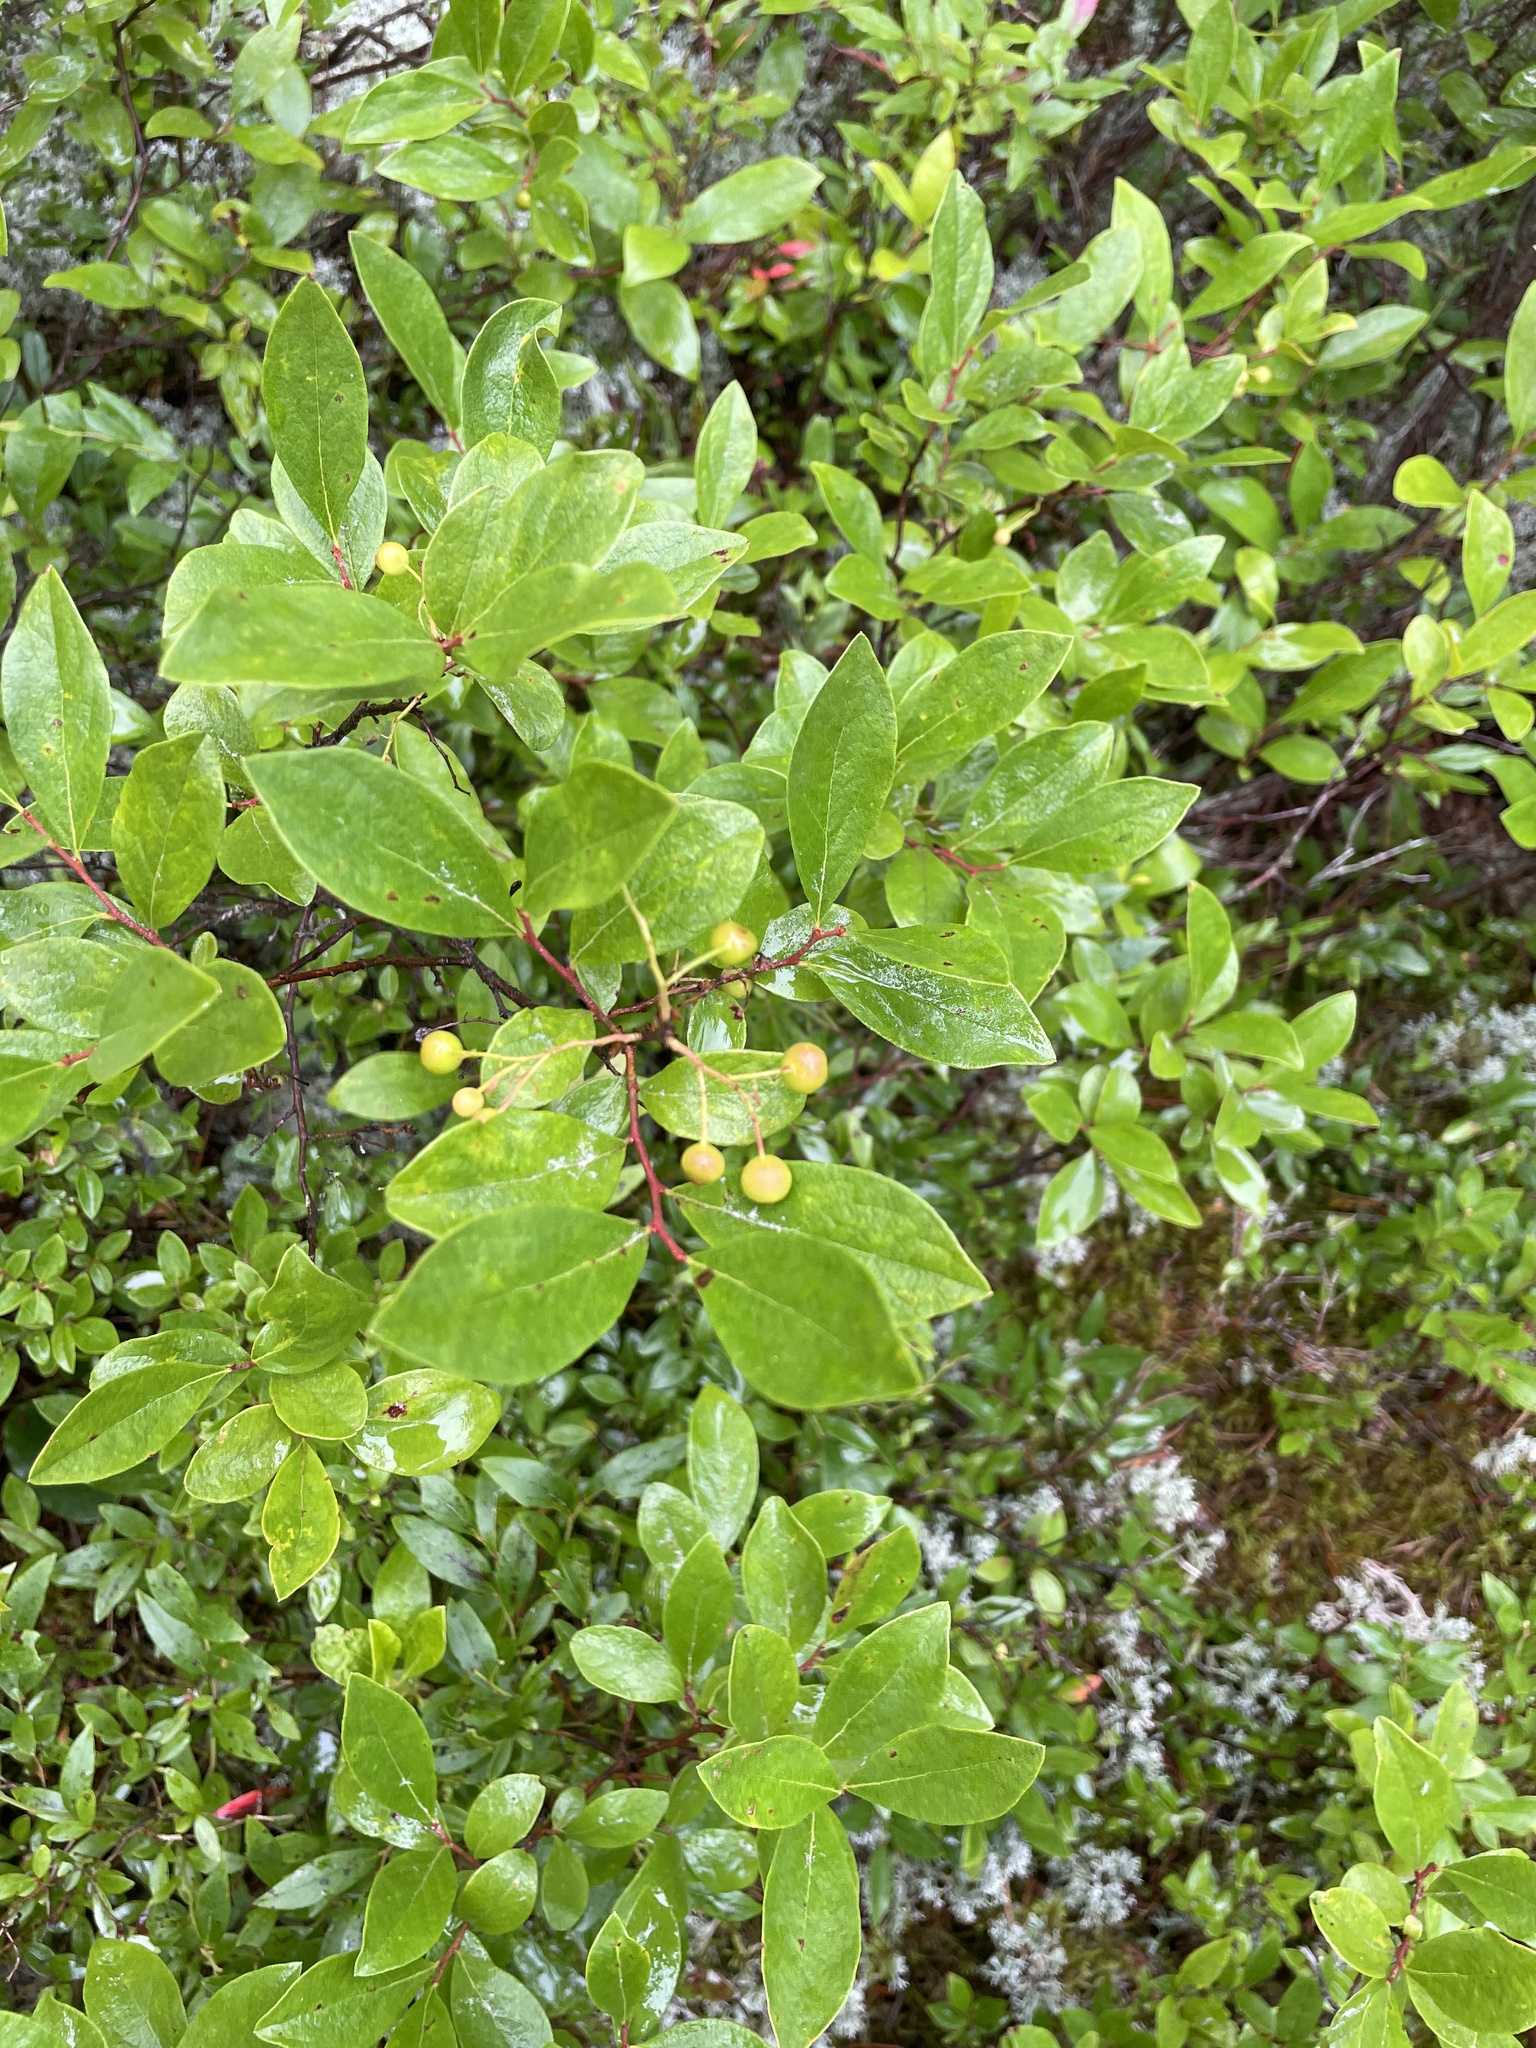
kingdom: Plantae
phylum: Tracheophyta
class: Magnoliopsida
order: Ericales
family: Ericaceae
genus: Gaylussacia
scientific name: Gaylussacia baccata
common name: Black huckleberry
